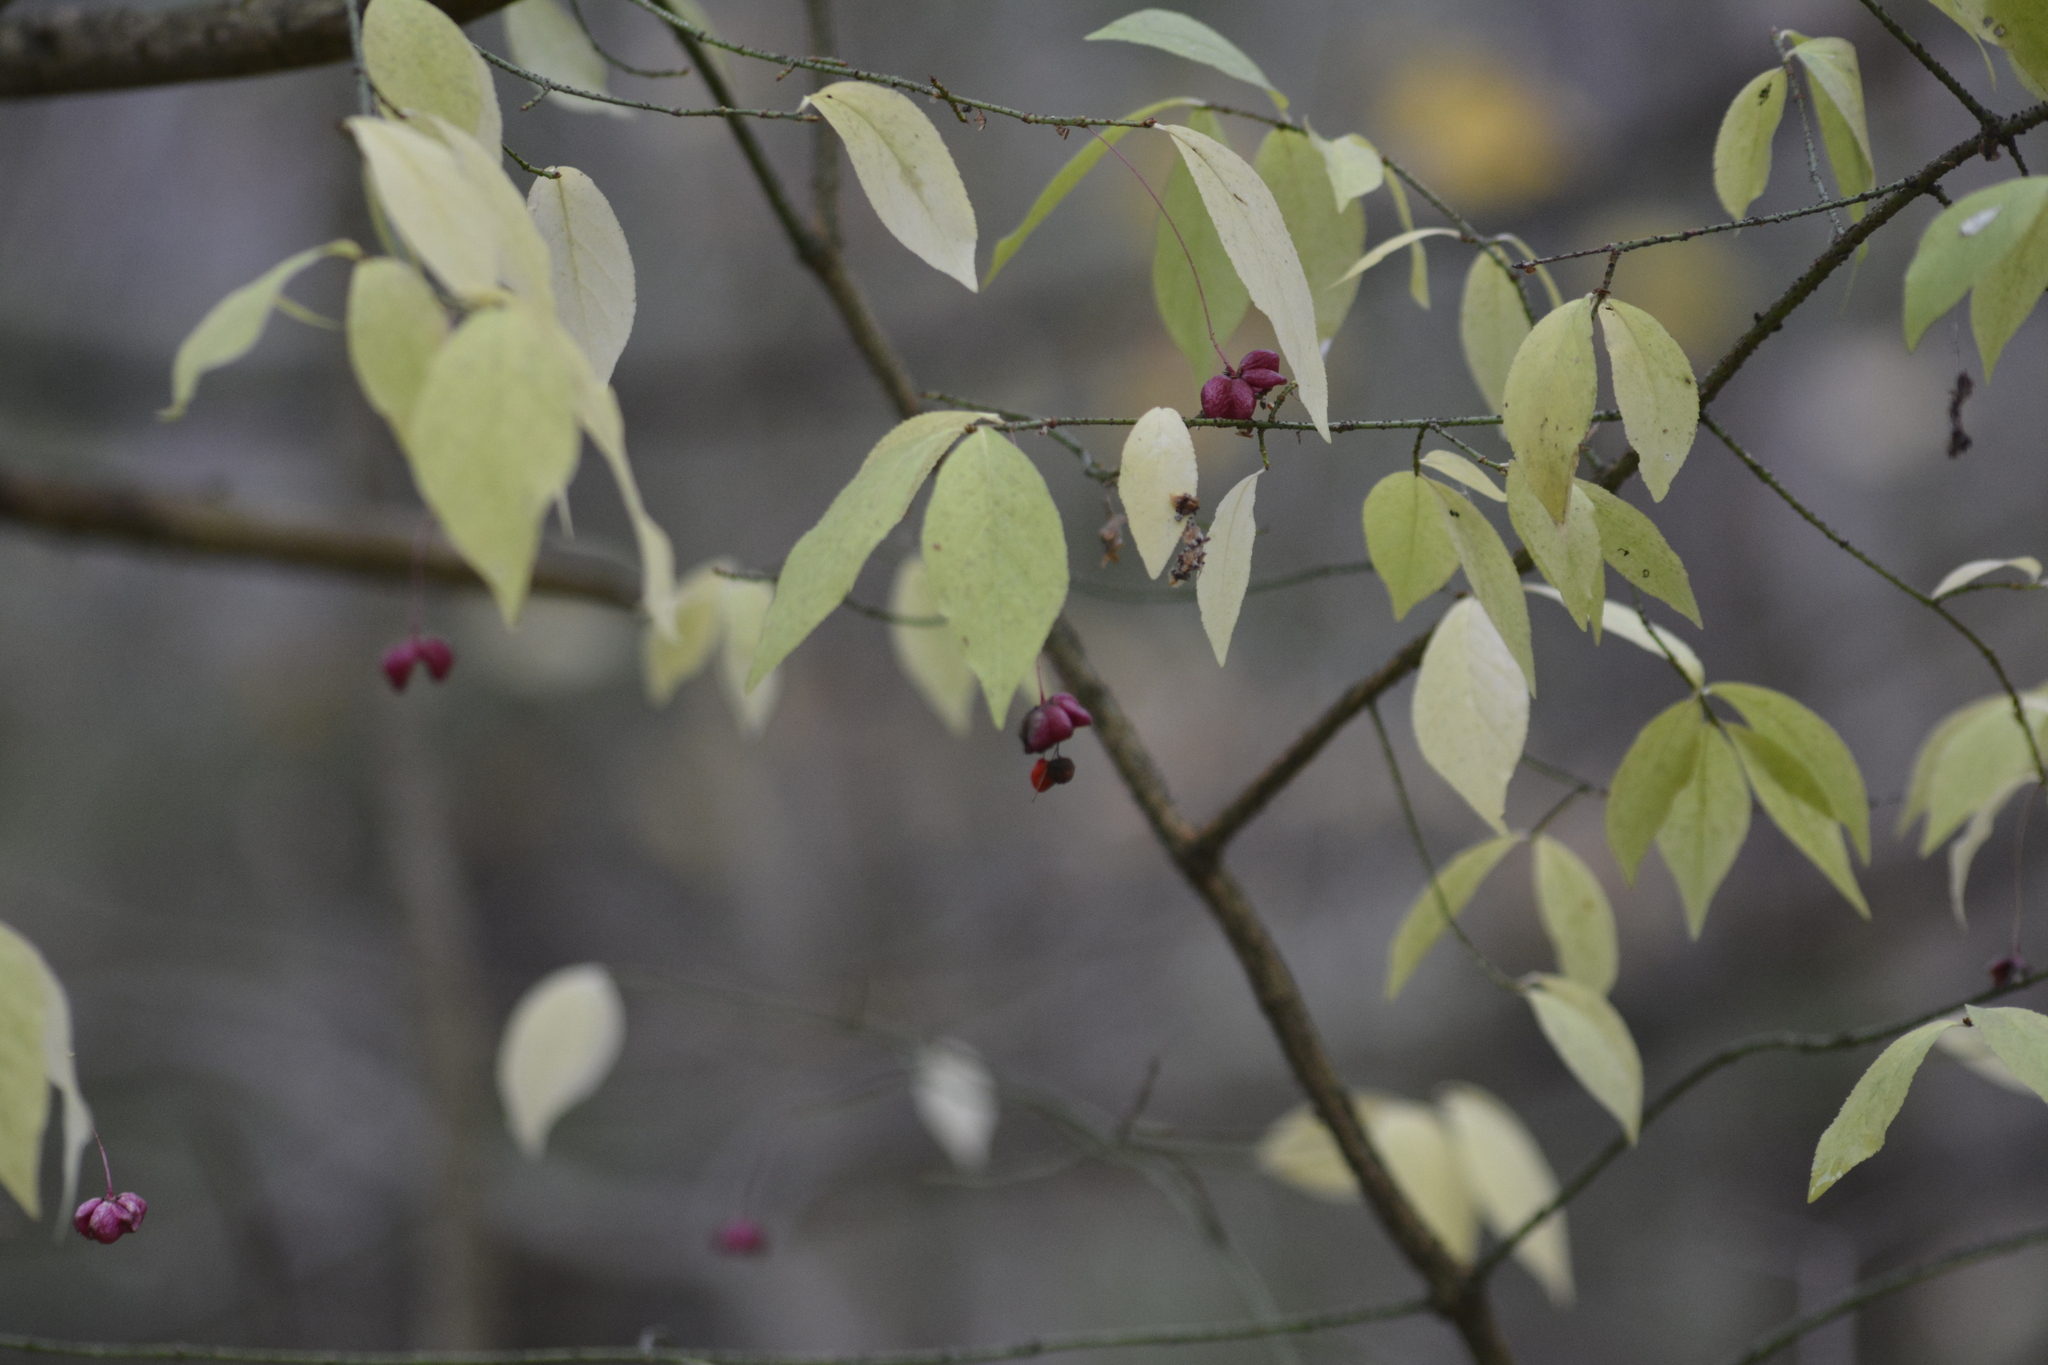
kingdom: Plantae
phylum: Tracheophyta
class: Magnoliopsida
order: Celastrales
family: Celastraceae
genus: Euonymus
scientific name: Euonymus verrucosus
